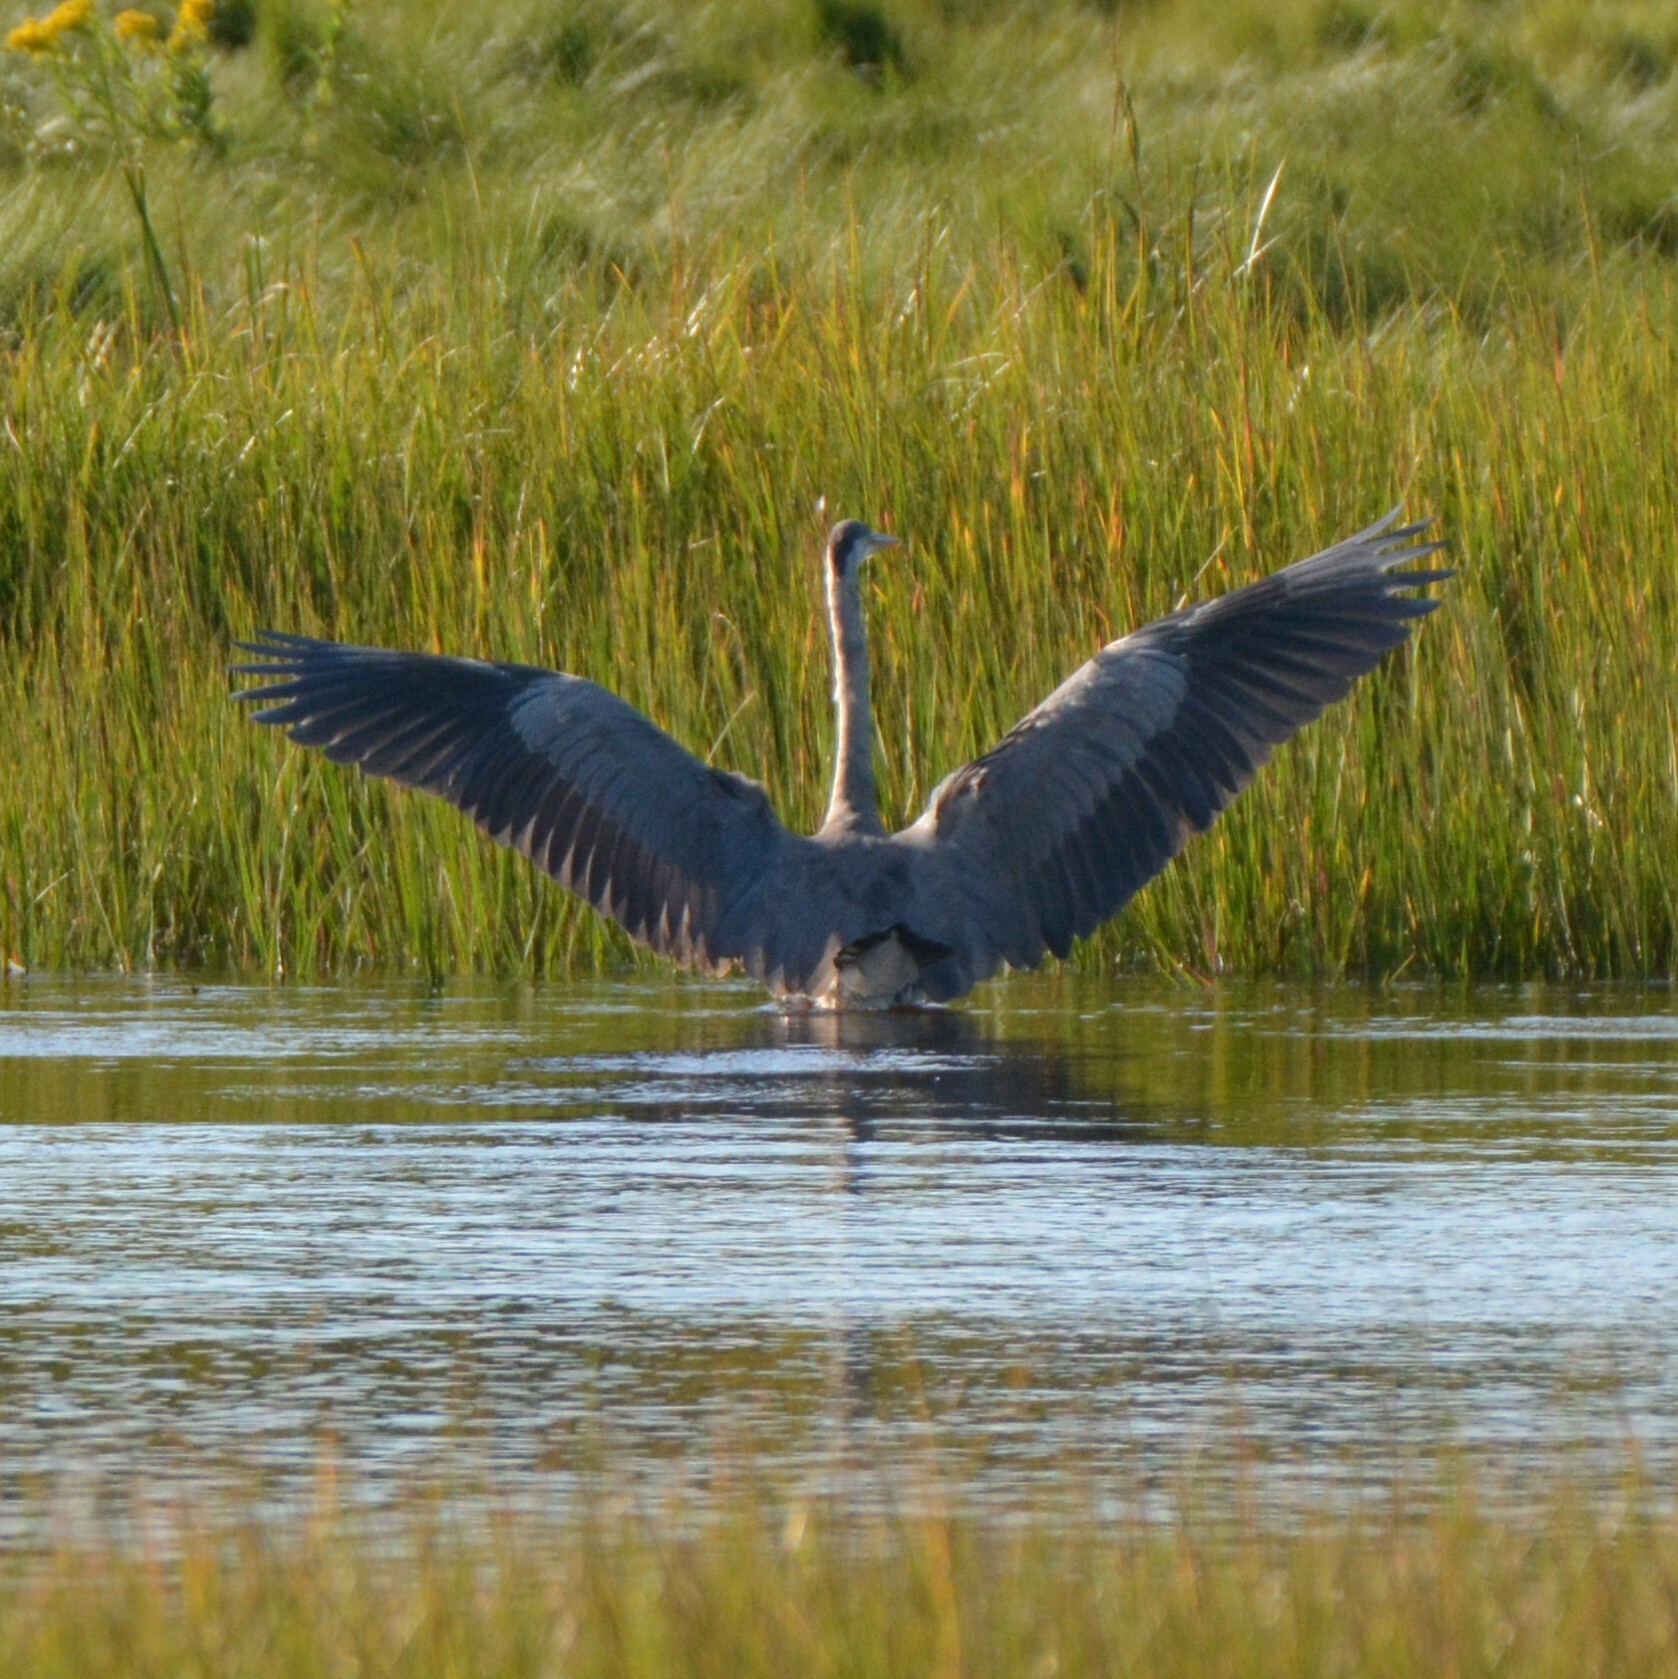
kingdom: Animalia
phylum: Chordata
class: Aves
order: Pelecaniformes
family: Ardeidae
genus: Ardea
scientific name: Ardea herodias
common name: Great blue heron
